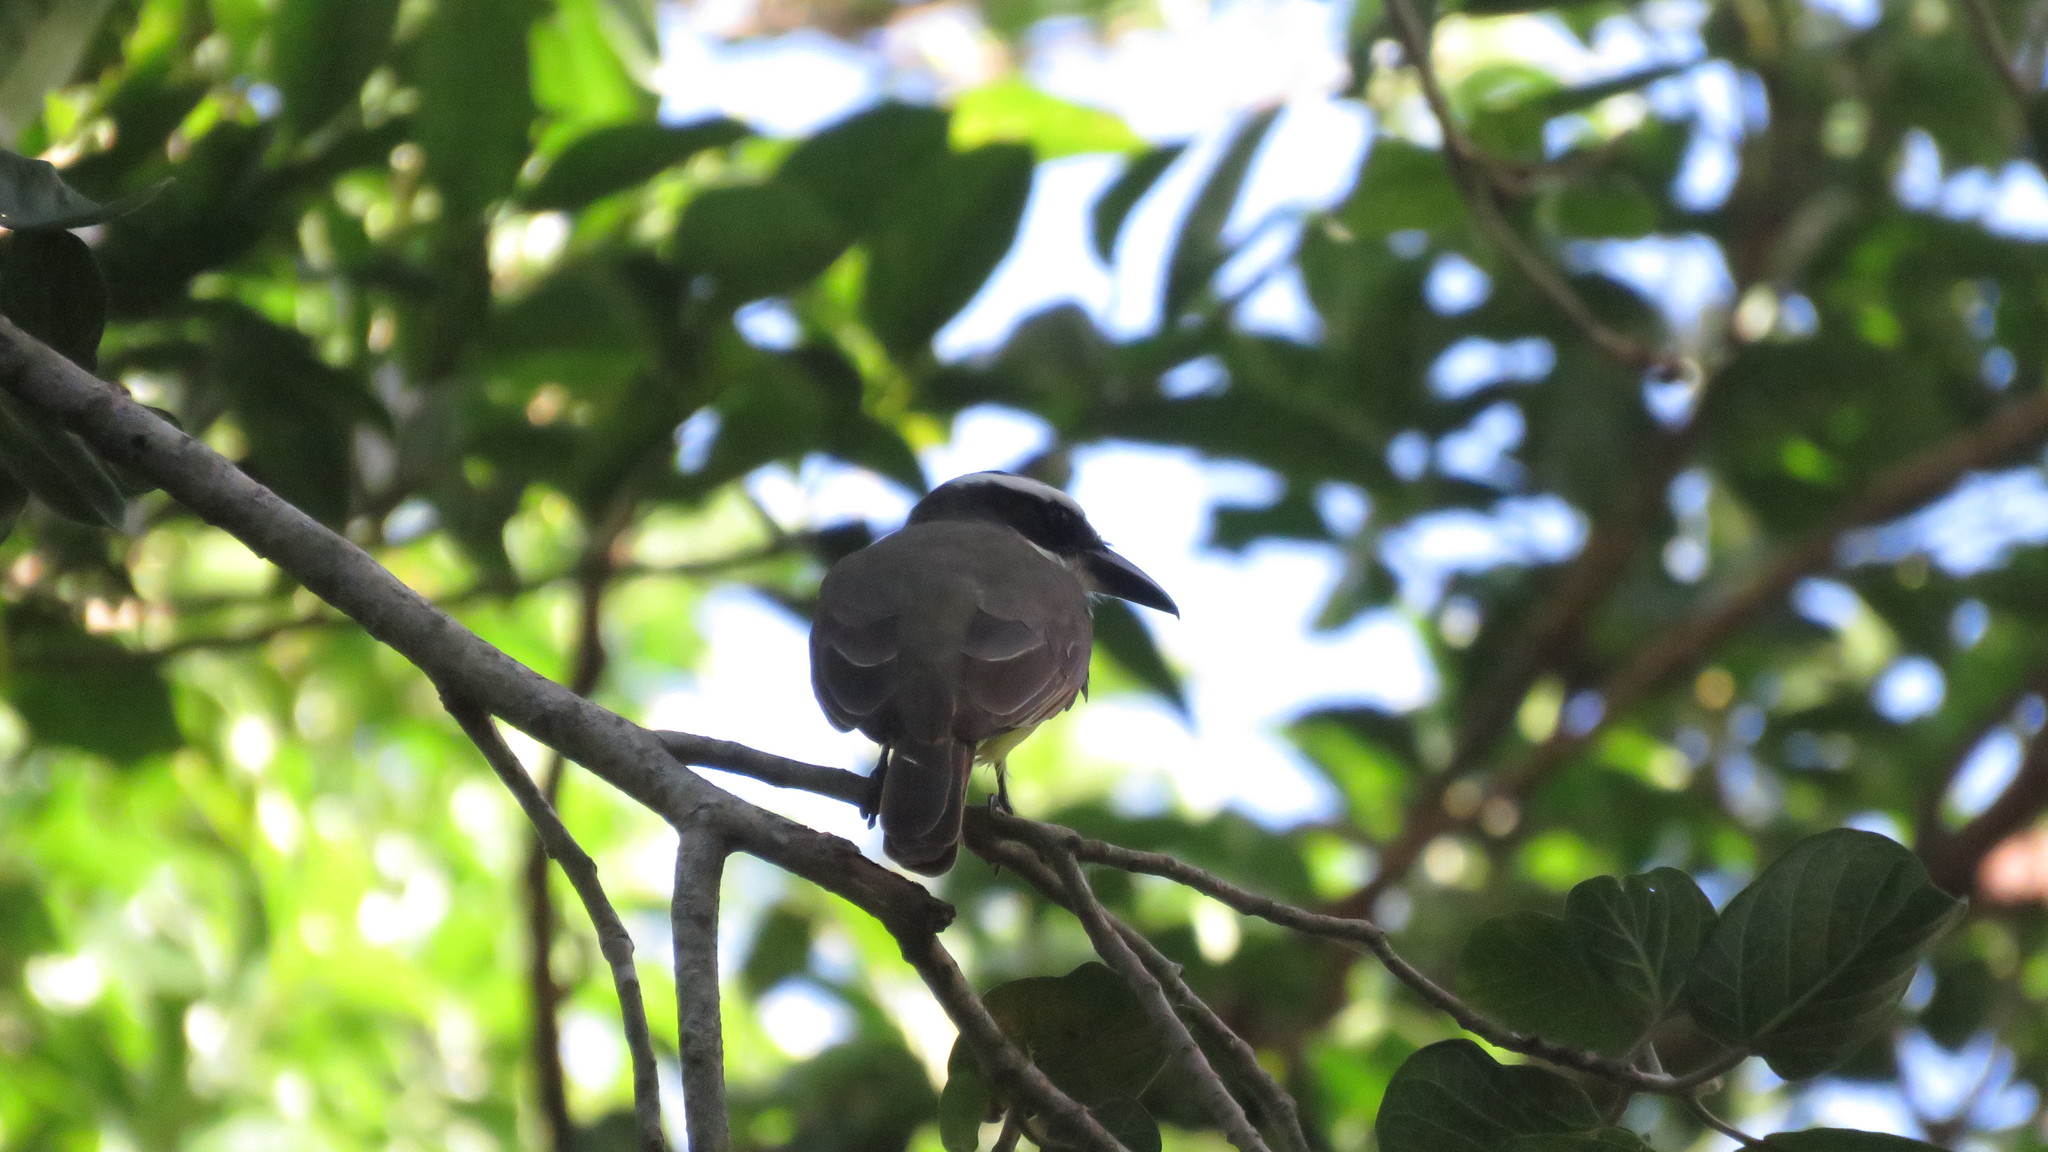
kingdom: Animalia
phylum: Chordata
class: Aves
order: Passeriformes
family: Tyrannidae
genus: Megarynchus
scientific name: Megarynchus pitangua
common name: Boat-billed flycatcher
